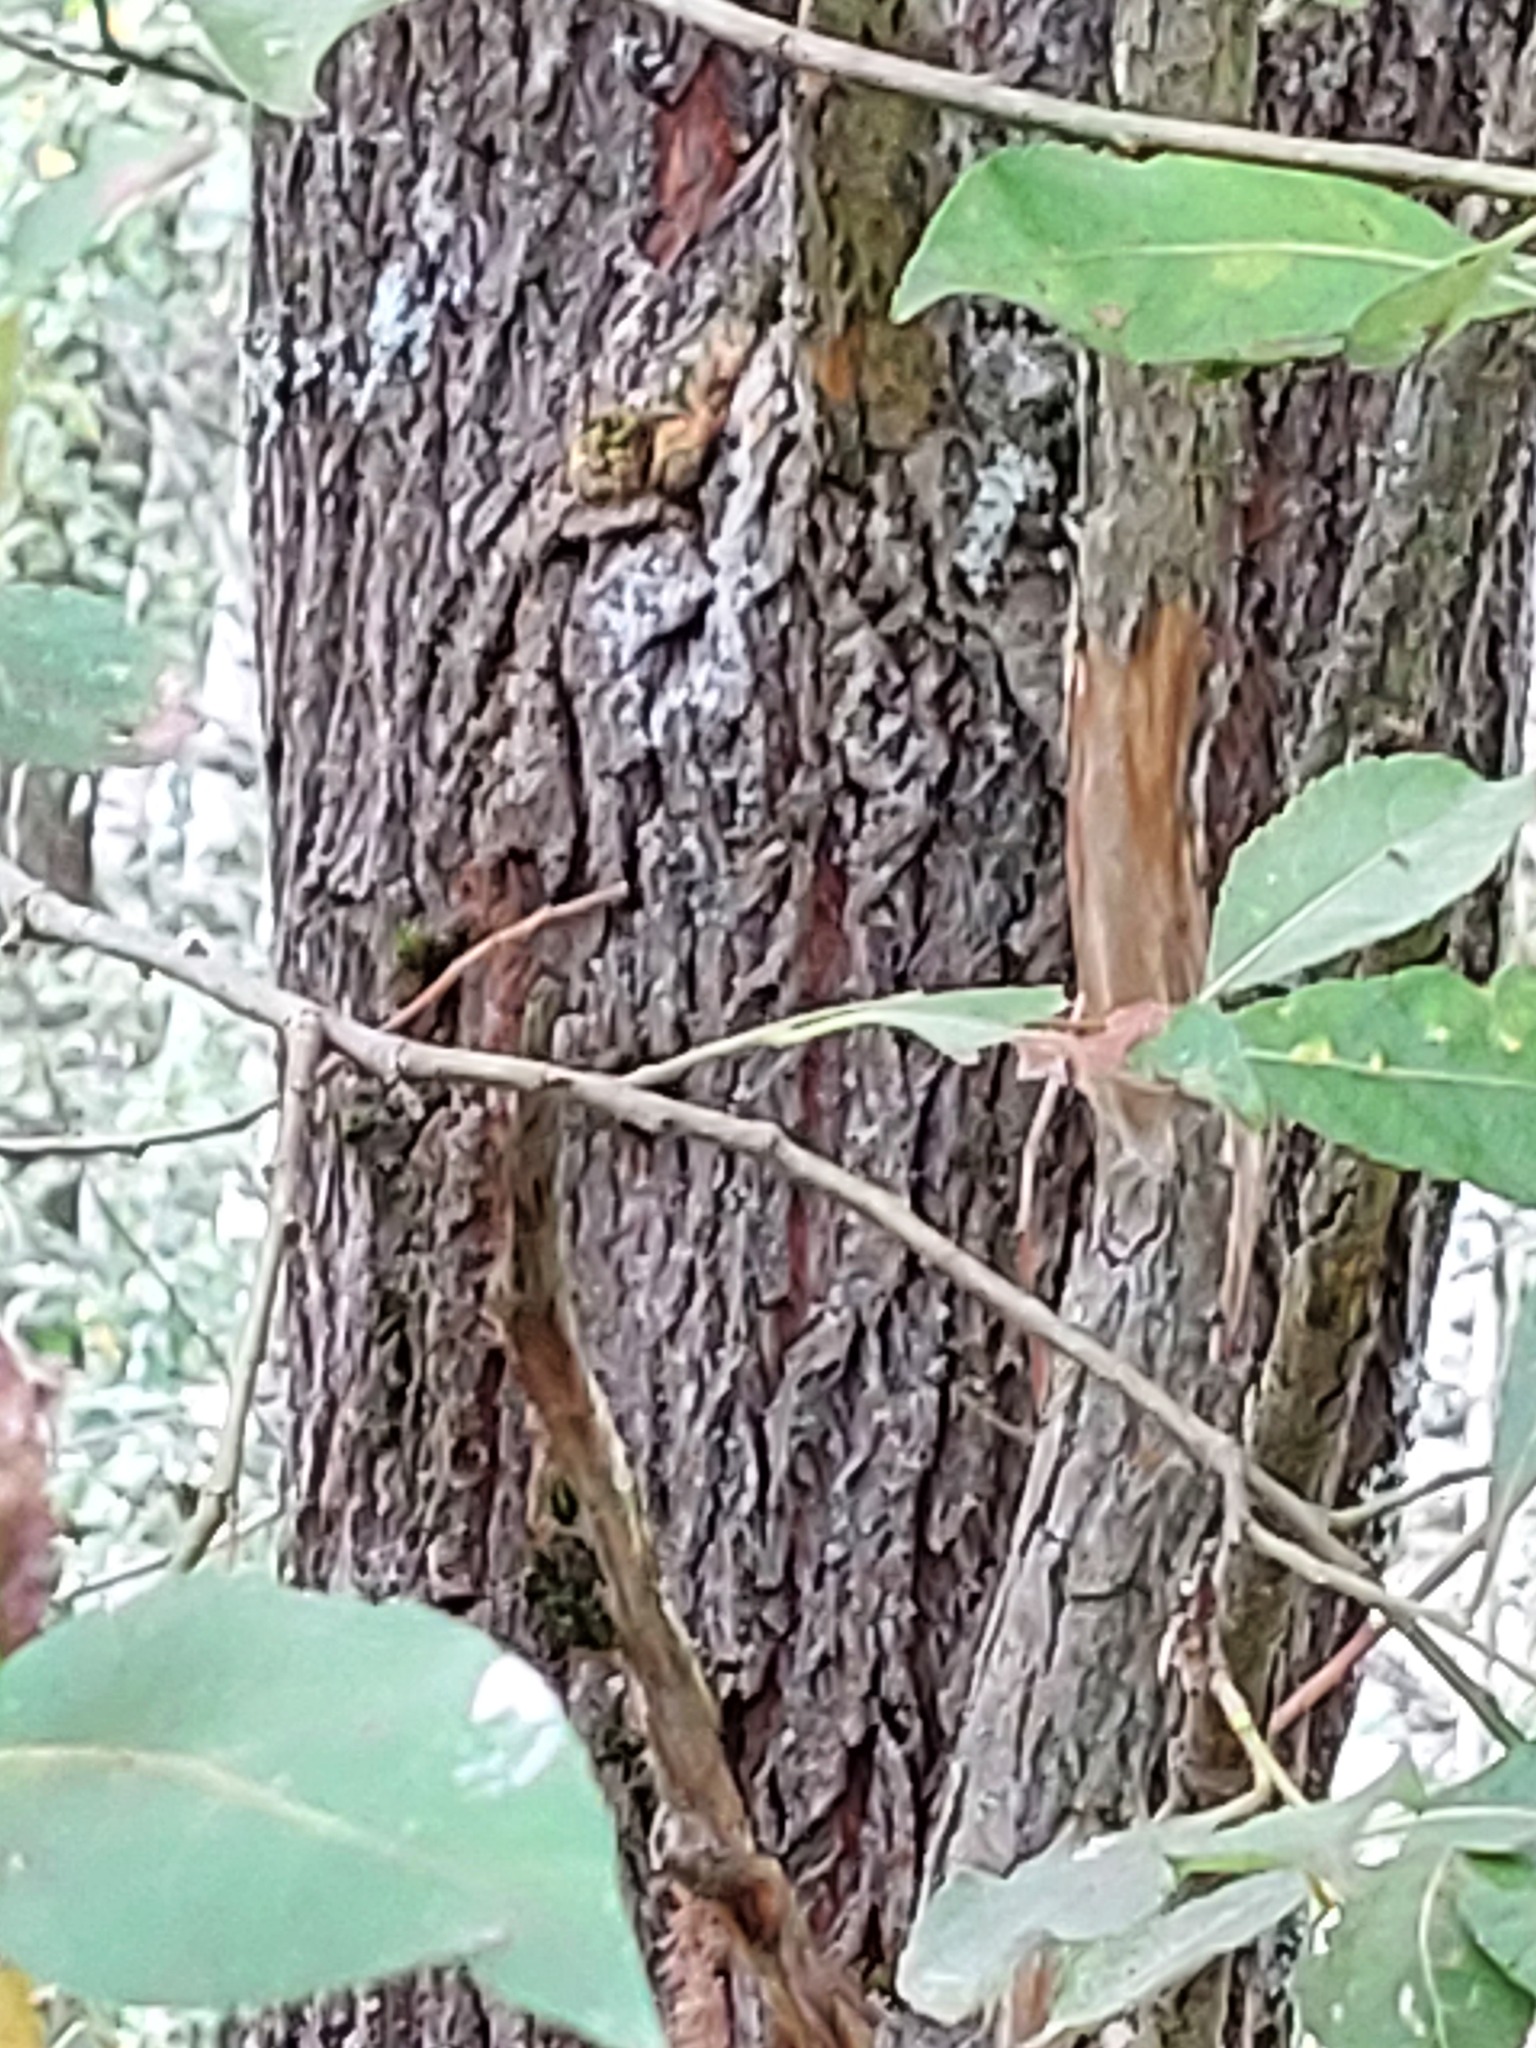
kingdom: Plantae
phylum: Tracheophyta
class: Magnoliopsida
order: Malpighiales
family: Salicaceae
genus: Salix
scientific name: Salix cinerea
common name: Common sallow
